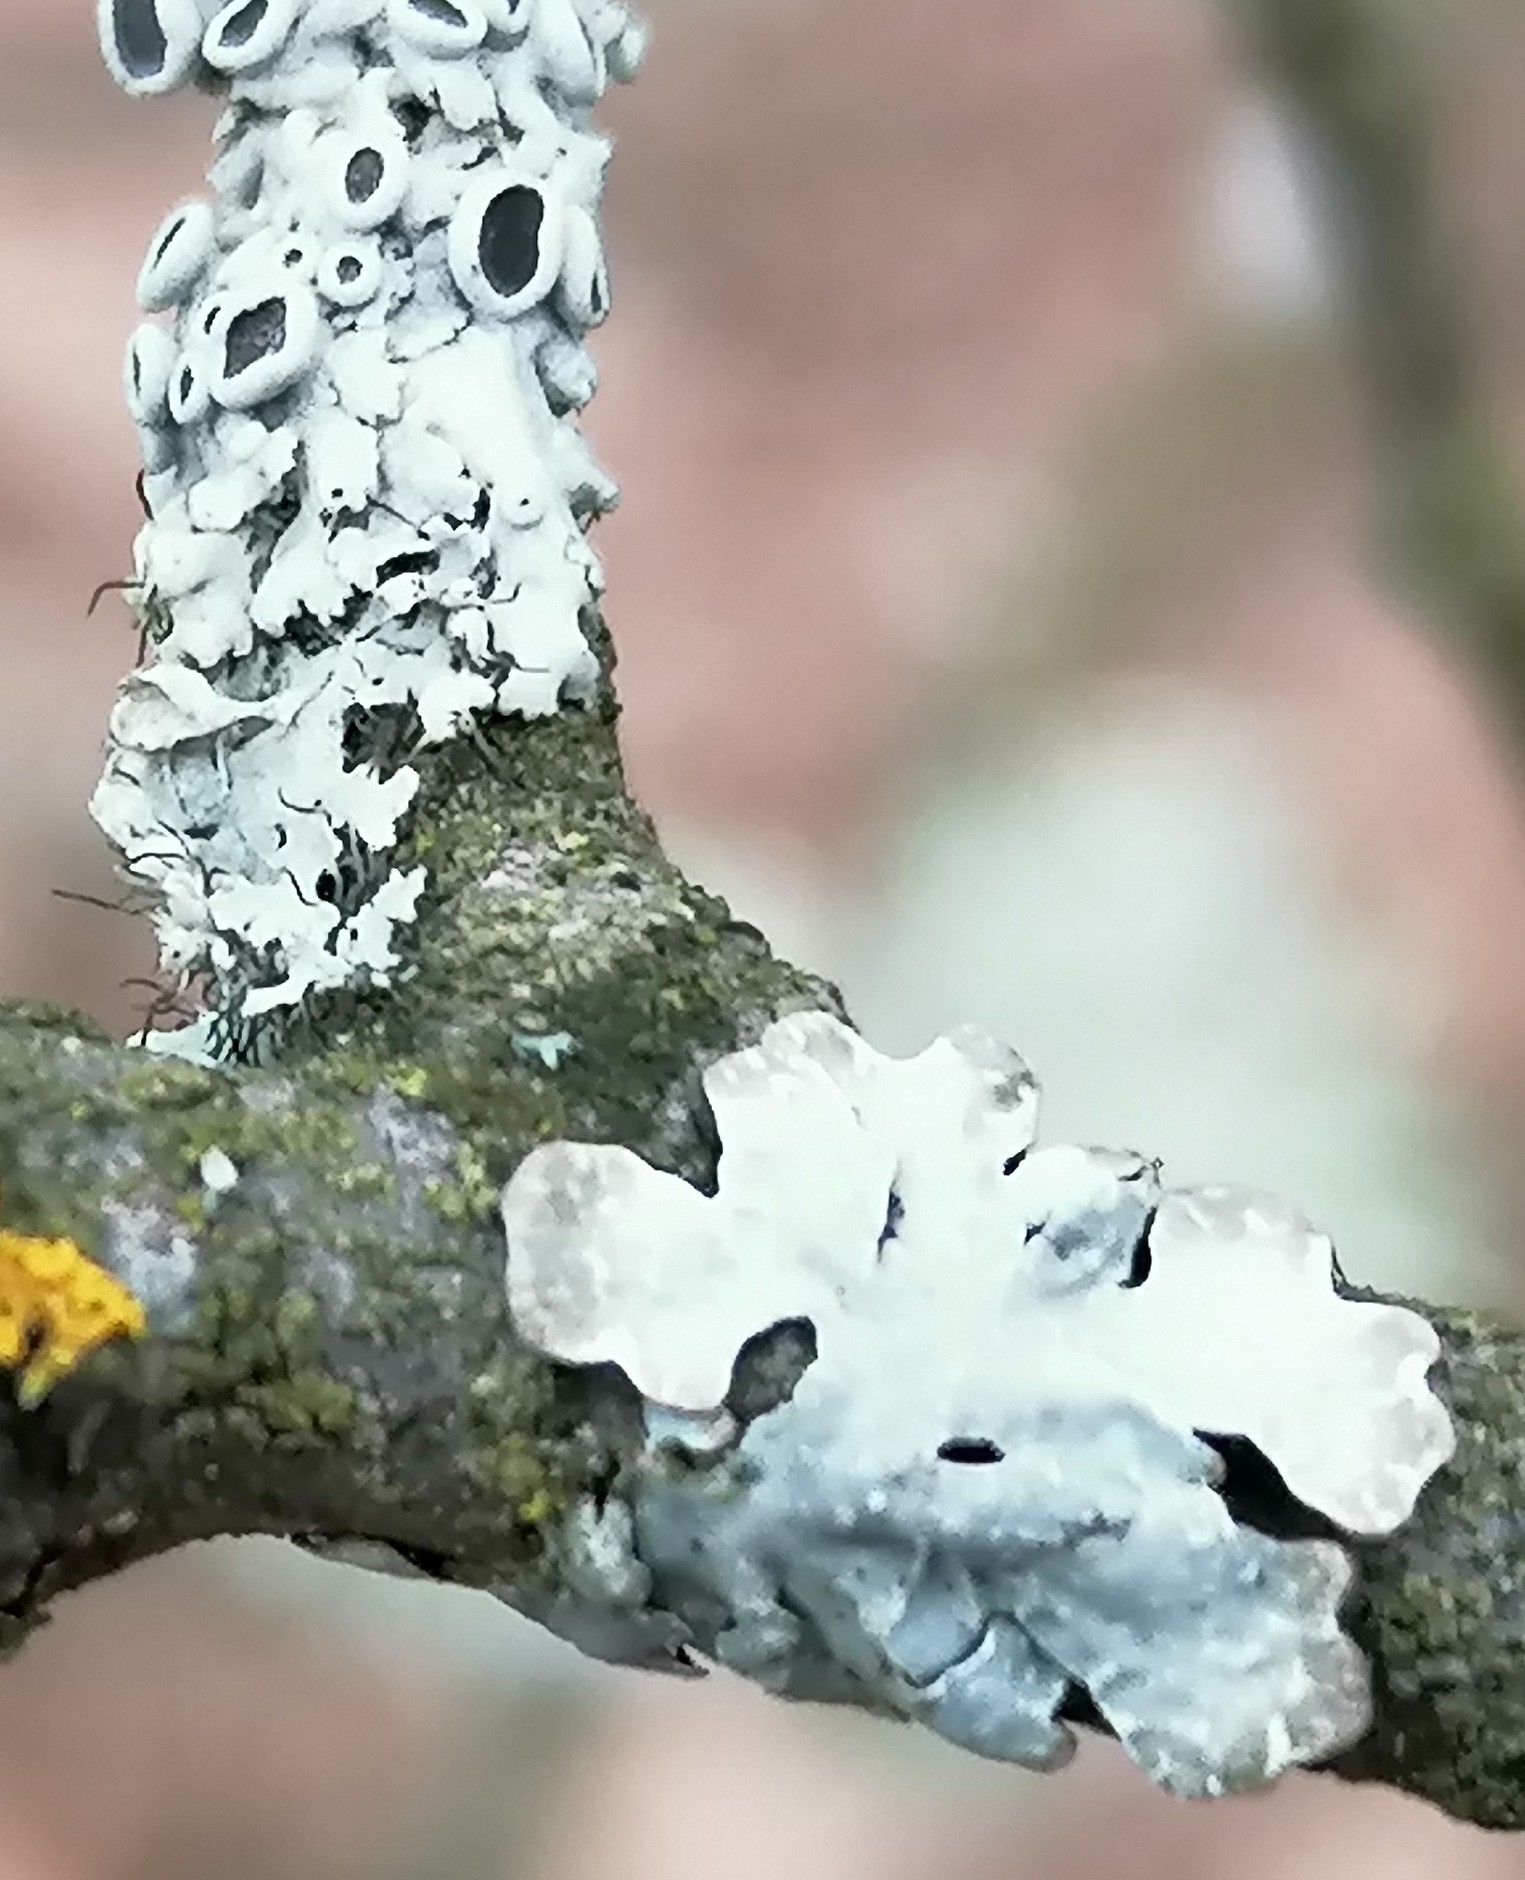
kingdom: Fungi
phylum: Ascomycota
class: Lecanoromycetes
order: Lecanorales
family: Parmeliaceae
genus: Parmelia
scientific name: Parmelia sulcata
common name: Netted shield lichen
